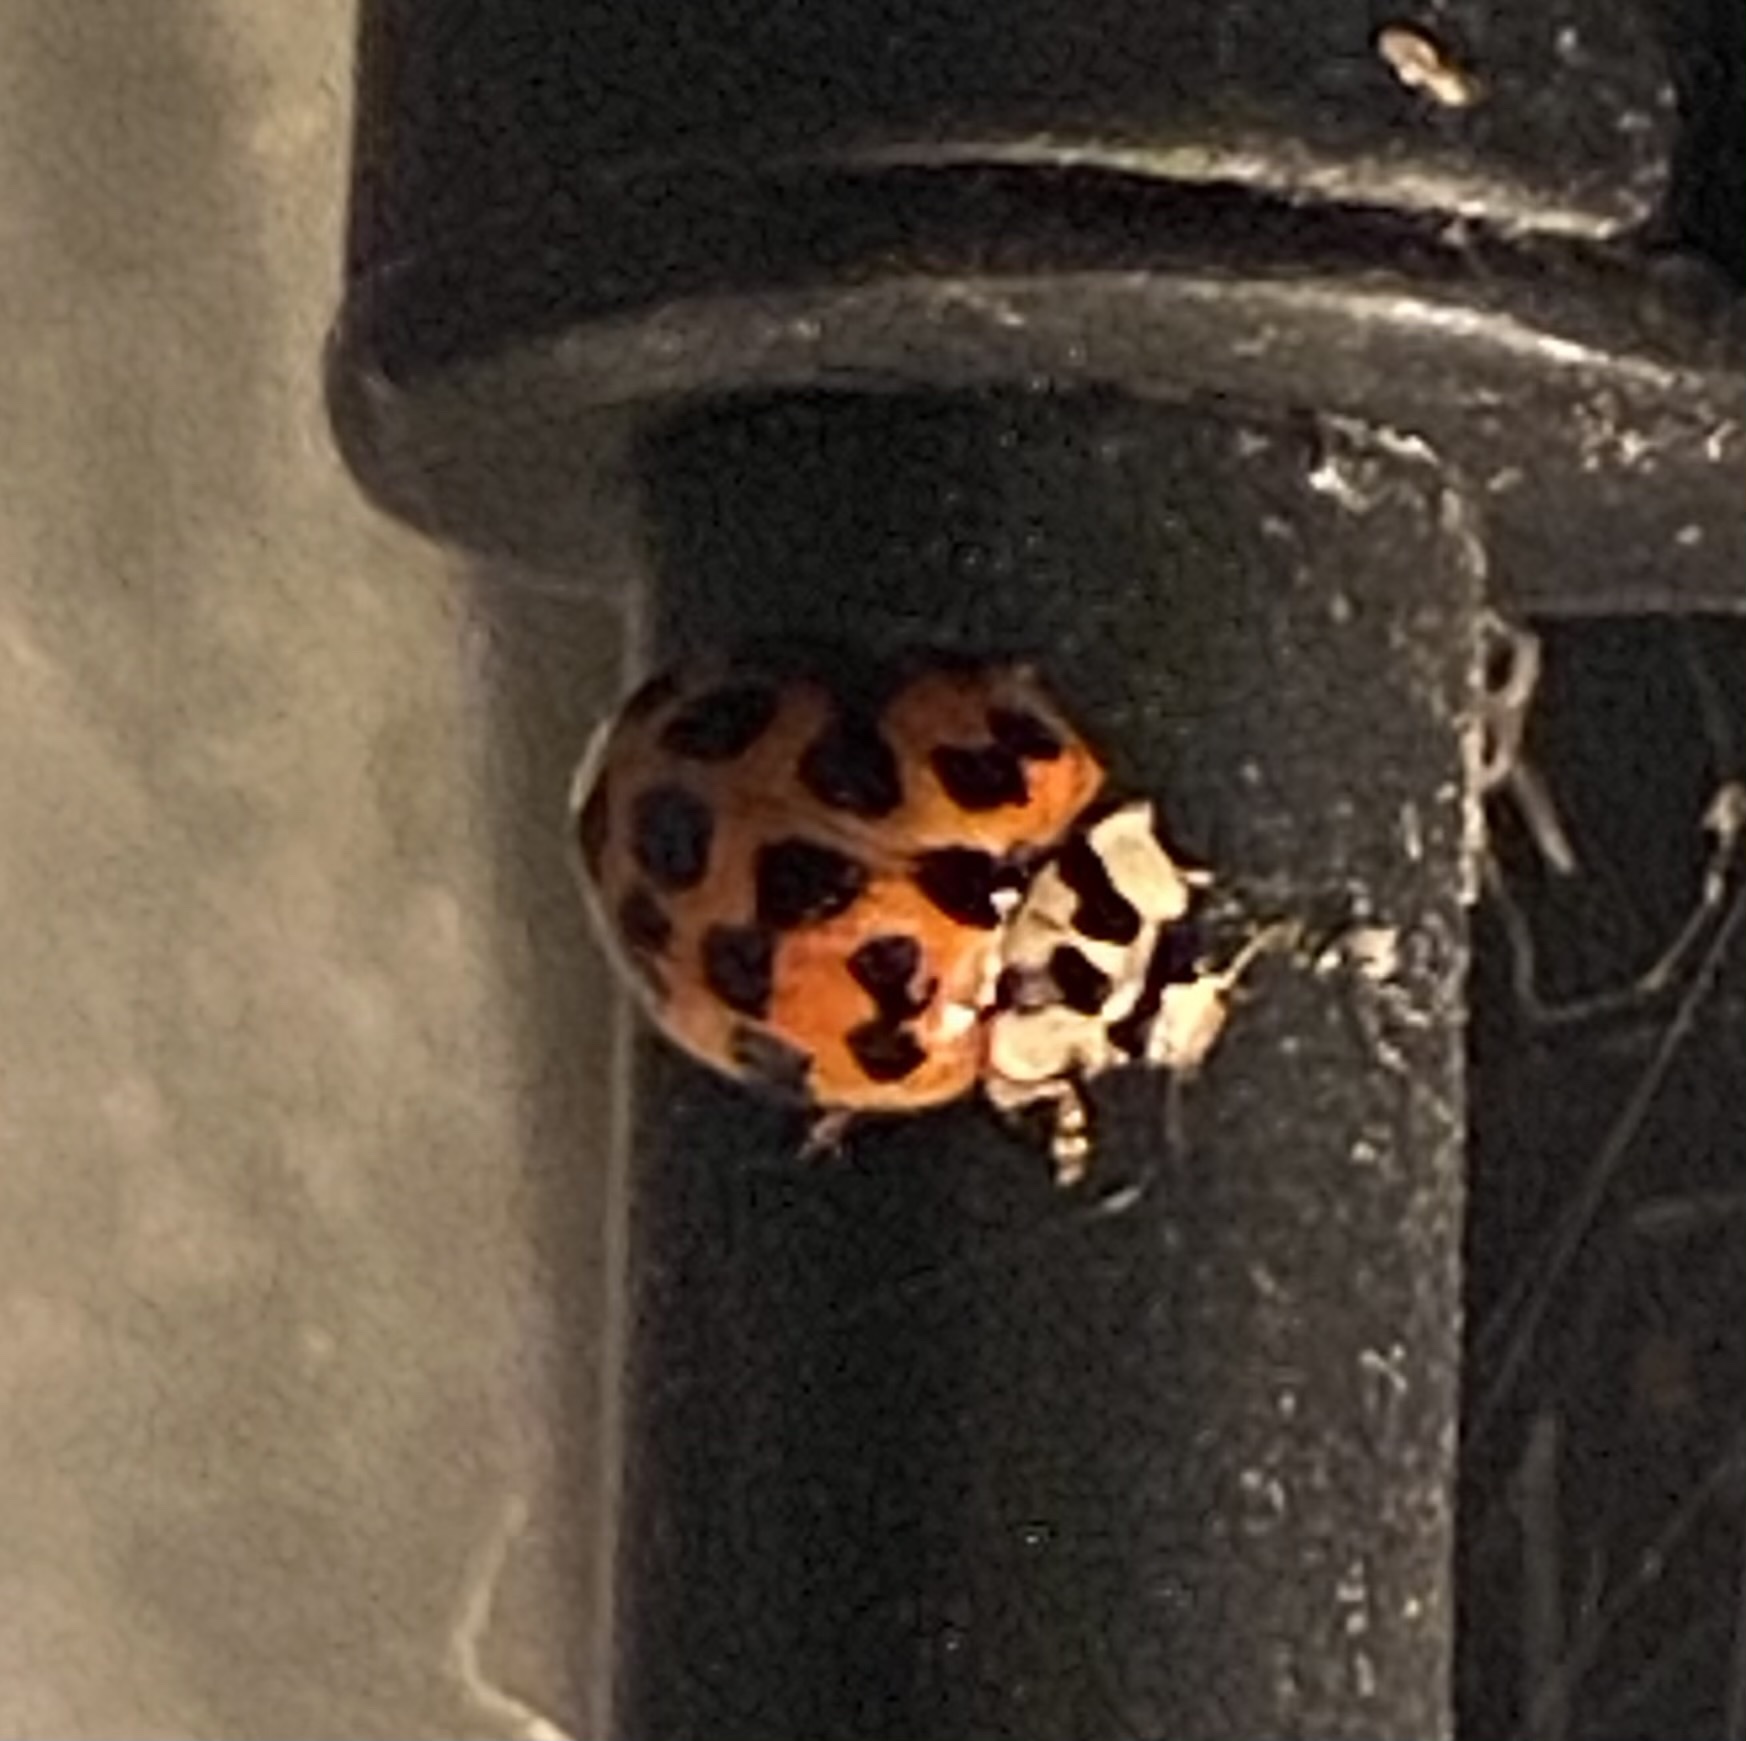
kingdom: Animalia
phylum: Arthropoda
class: Insecta
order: Coleoptera
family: Coccinellidae
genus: Harmonia
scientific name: Harmonia axyridis
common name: Harlequin ladybird
